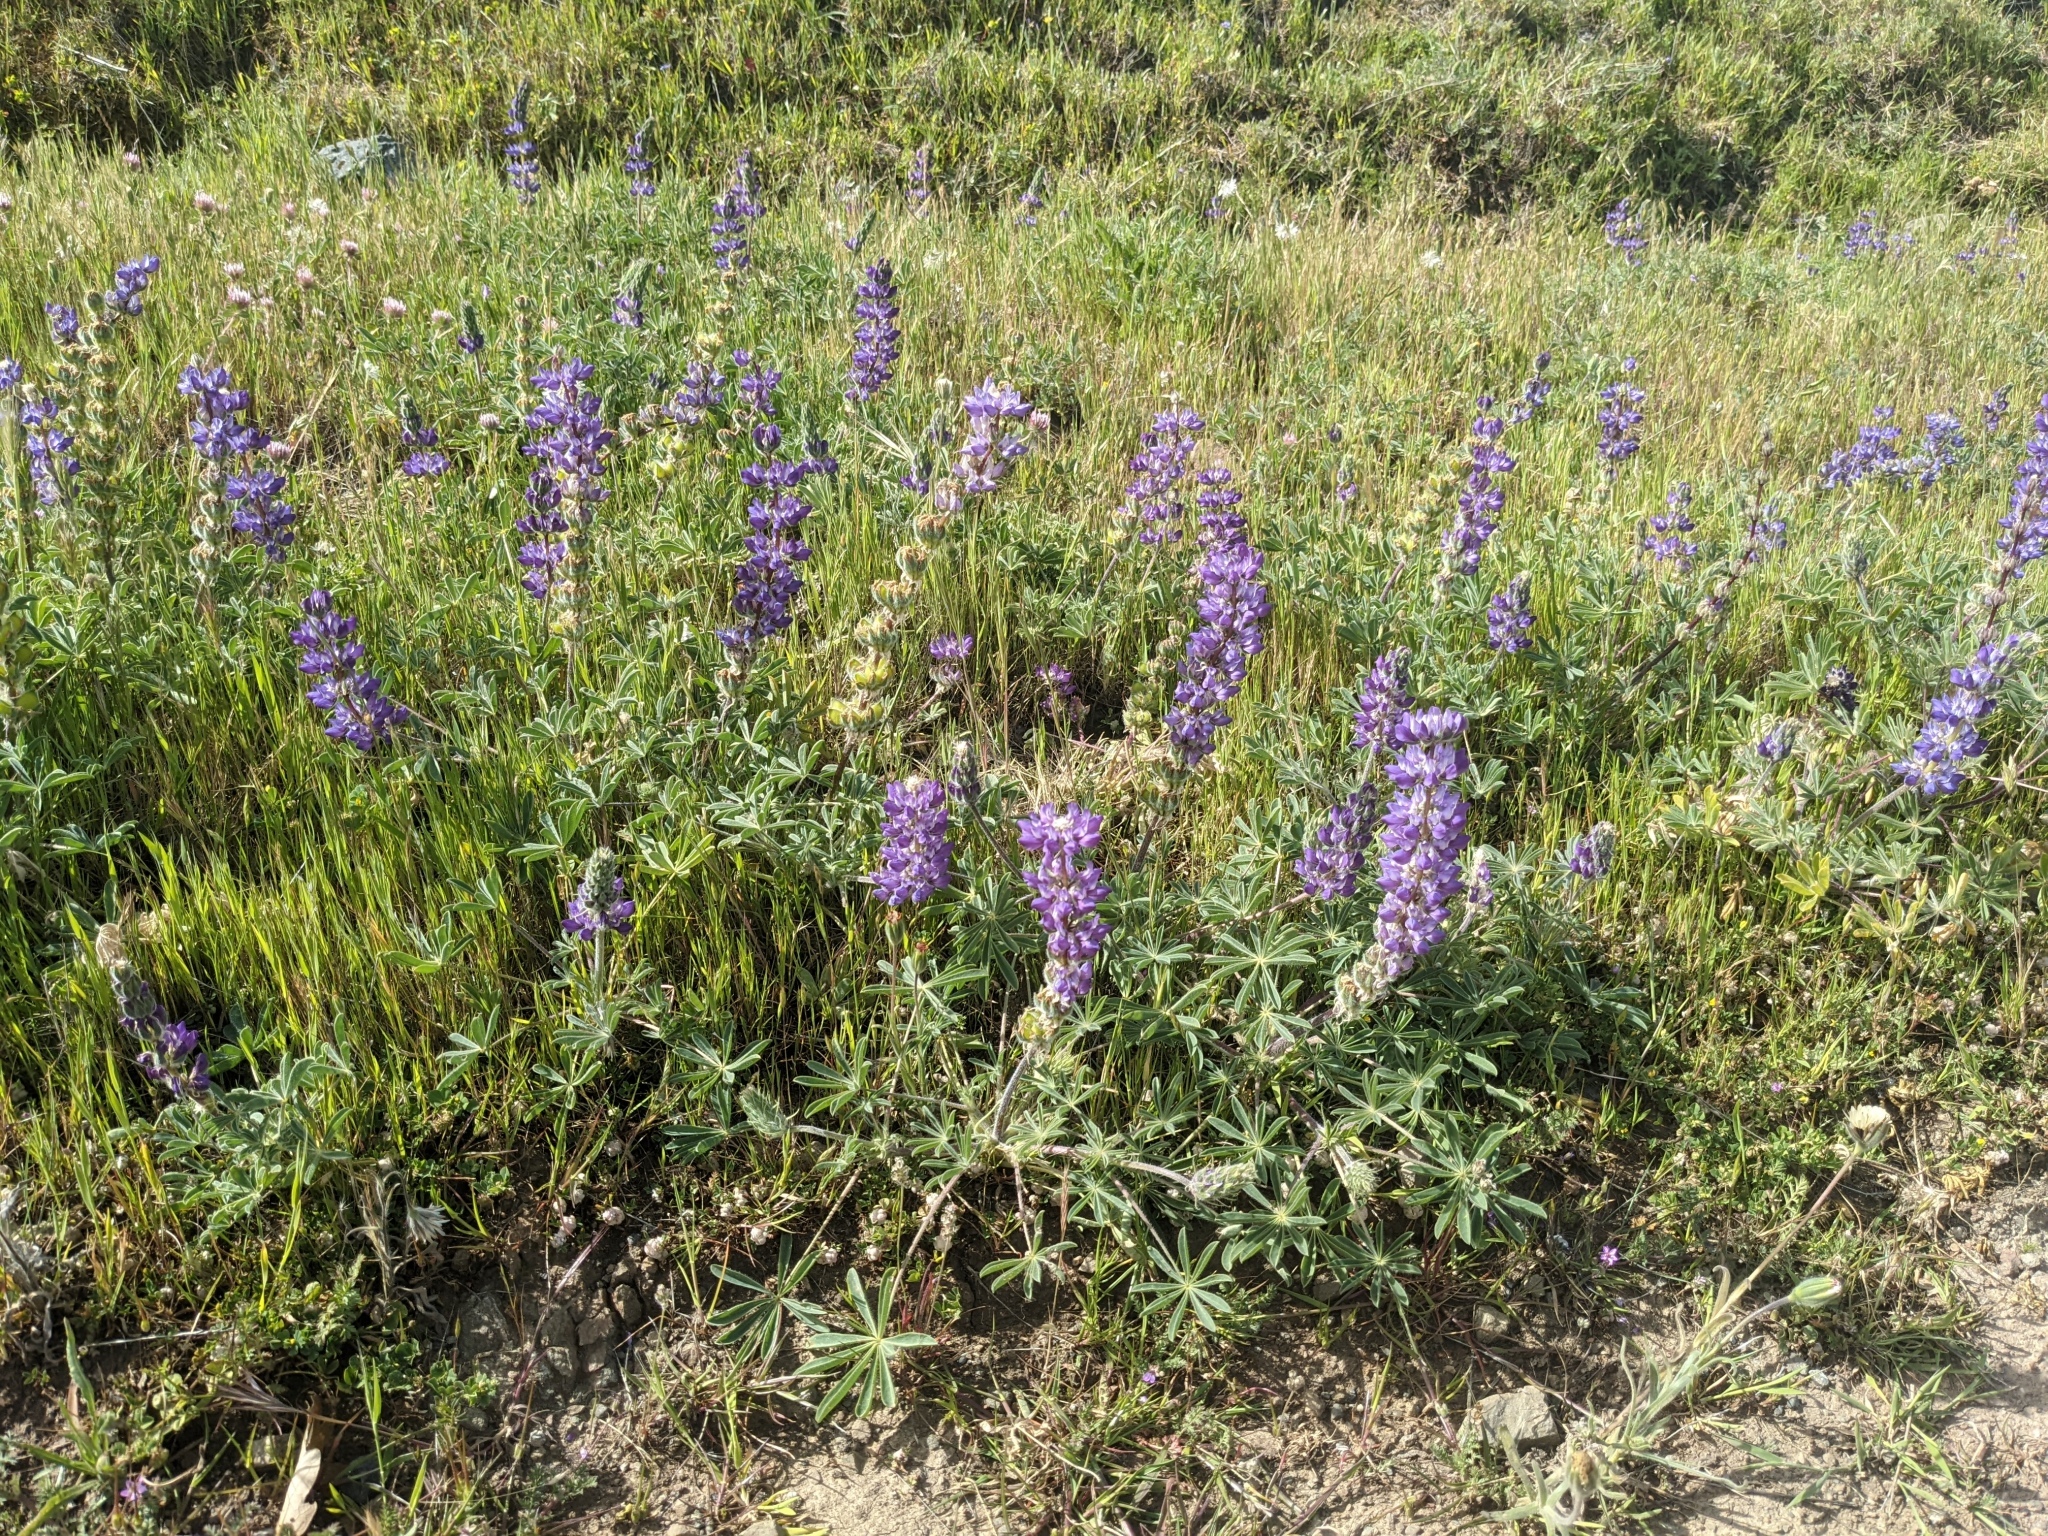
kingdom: Plantae
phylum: Tracheophyta
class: Magnoliopsida
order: Fabales
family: Fabaceae
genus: Lupinus
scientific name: Lupinus microcarpus
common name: Chick lupine
